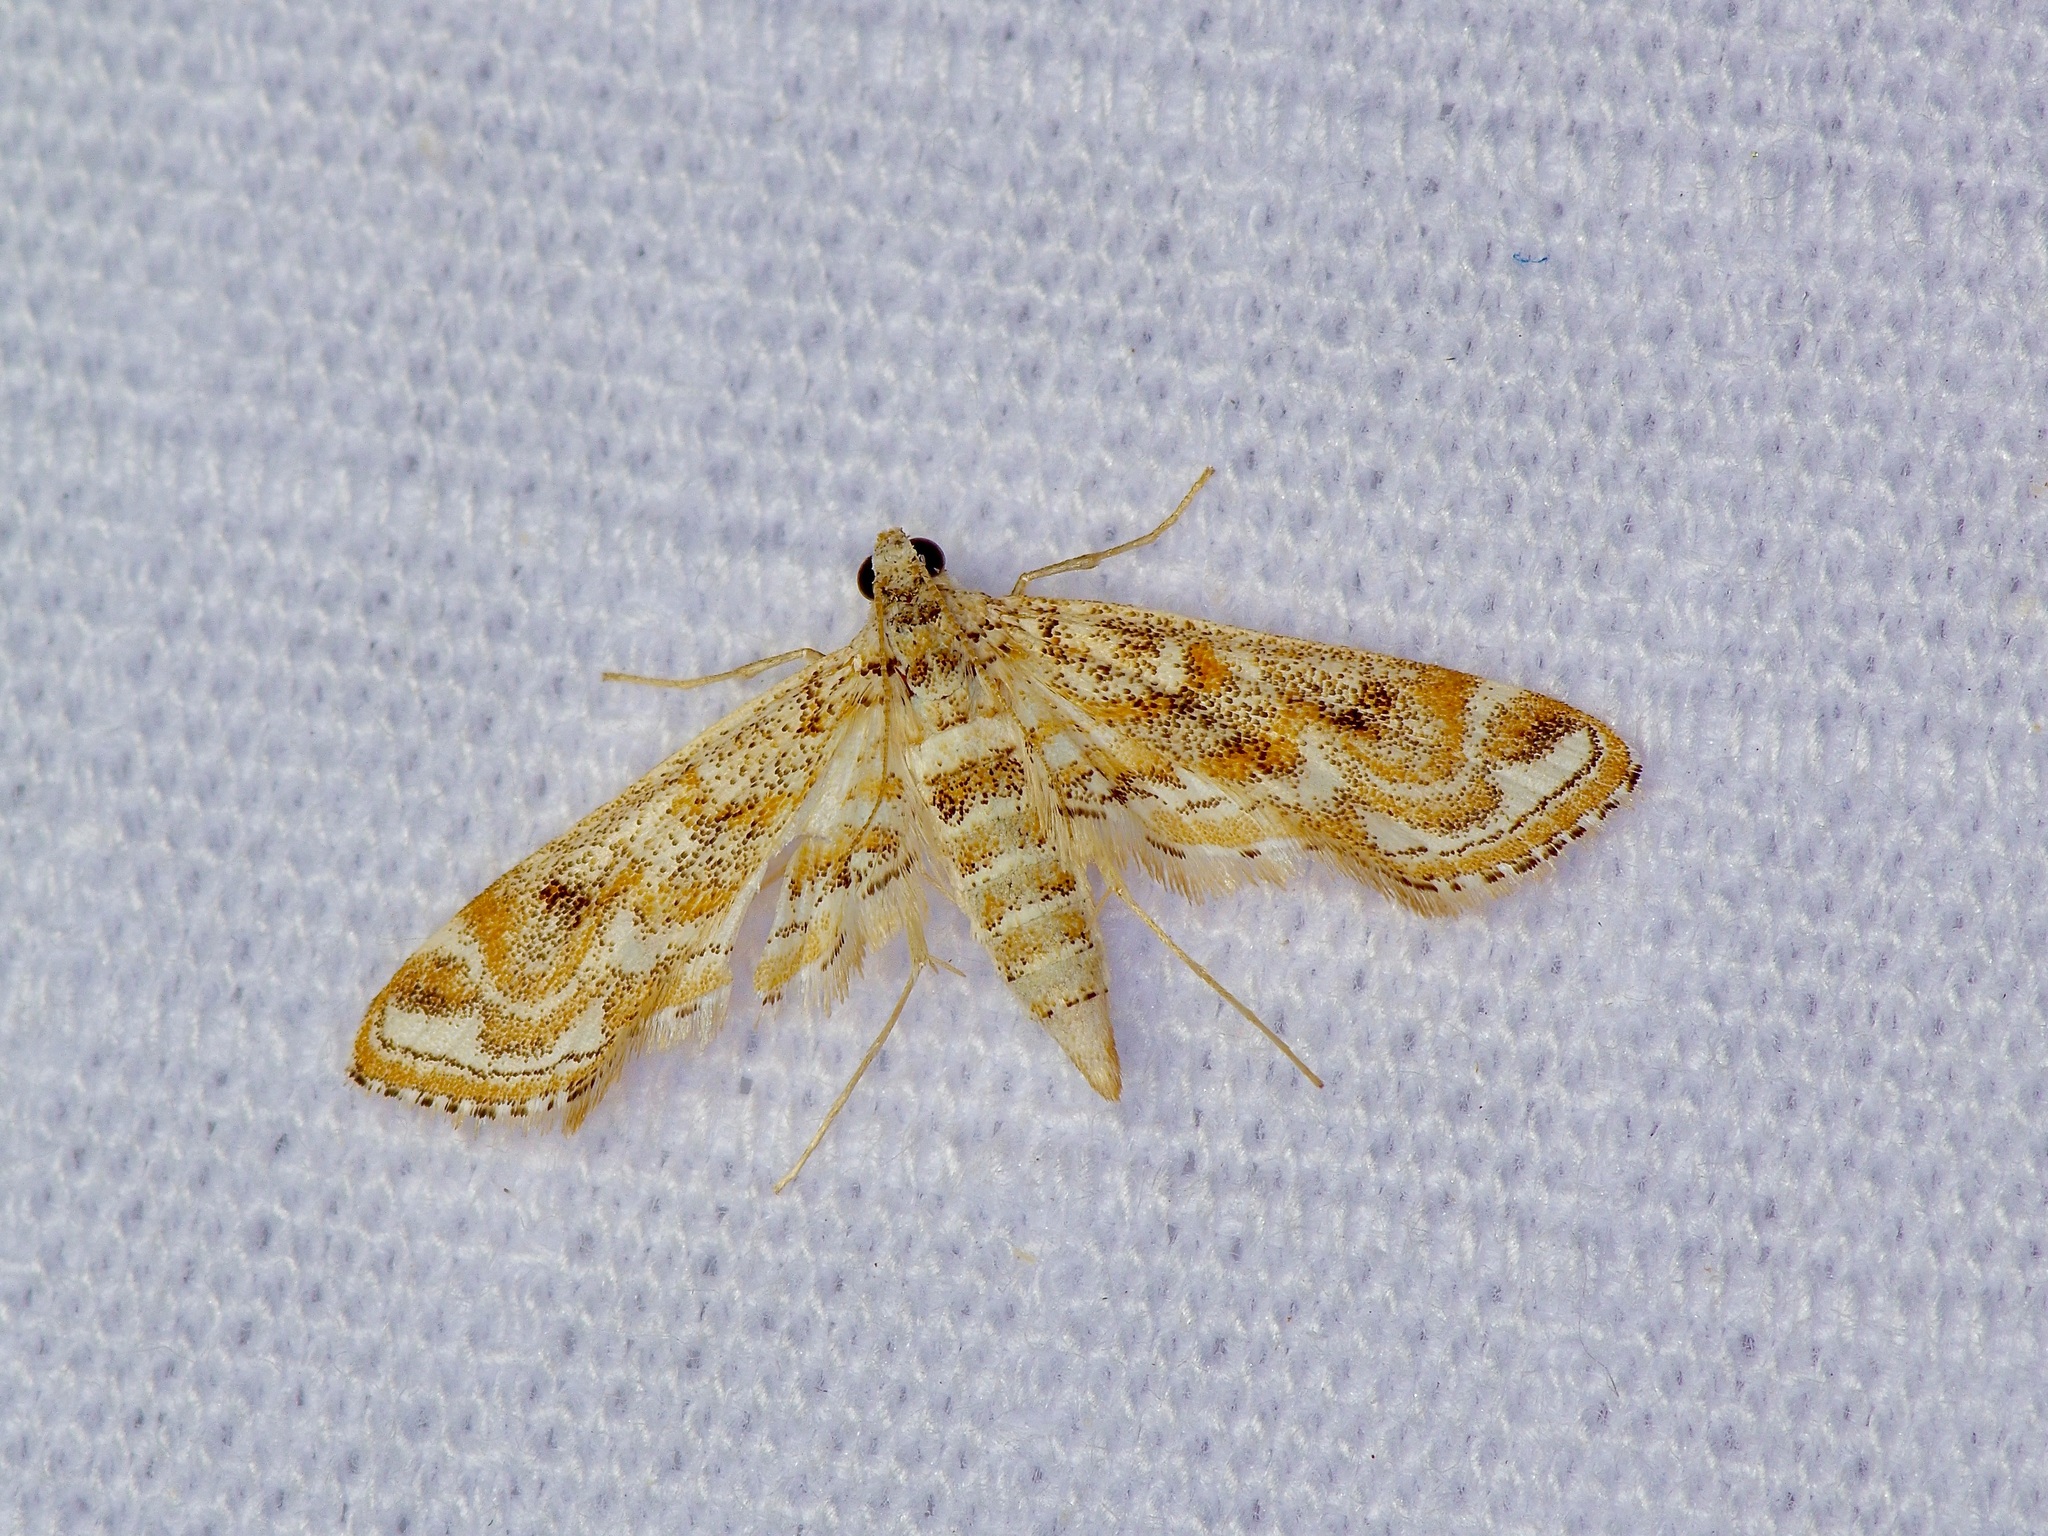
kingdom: Animalia
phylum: Arthropoda
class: Insecta
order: Lepidoptera
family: Crambidae
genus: Parapoynx
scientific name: Parapoynx diminutalis
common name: Hydrilla leafcutter
